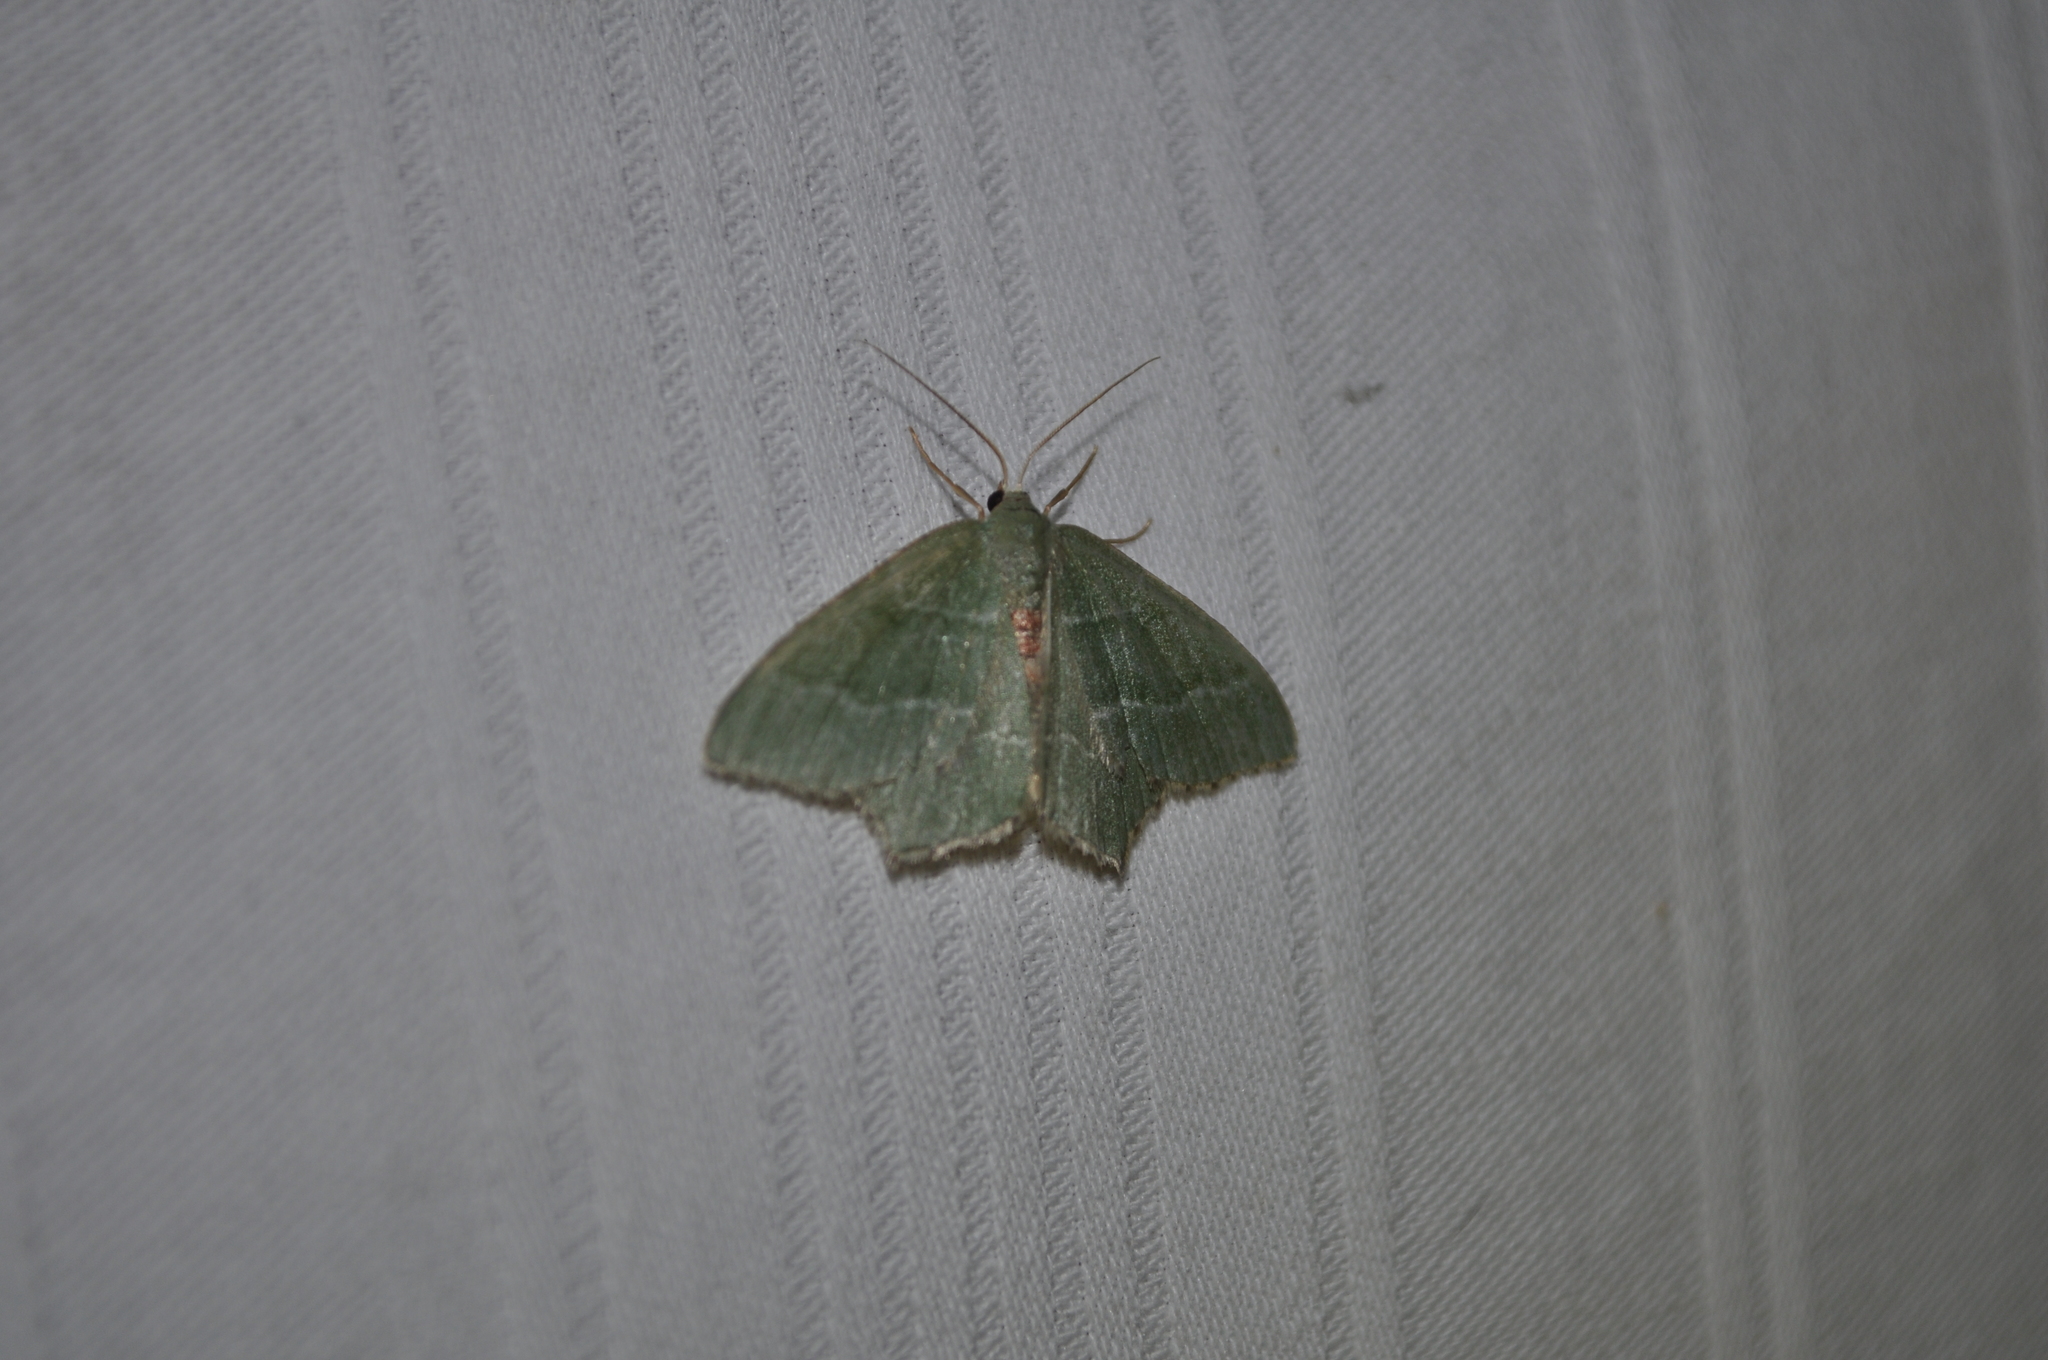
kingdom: Animalia
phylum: Arthropoda
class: Insecta
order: Lepidoptera
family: Geometridae
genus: Hemithea
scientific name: Hemithea aestivaria
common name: Common emerald
